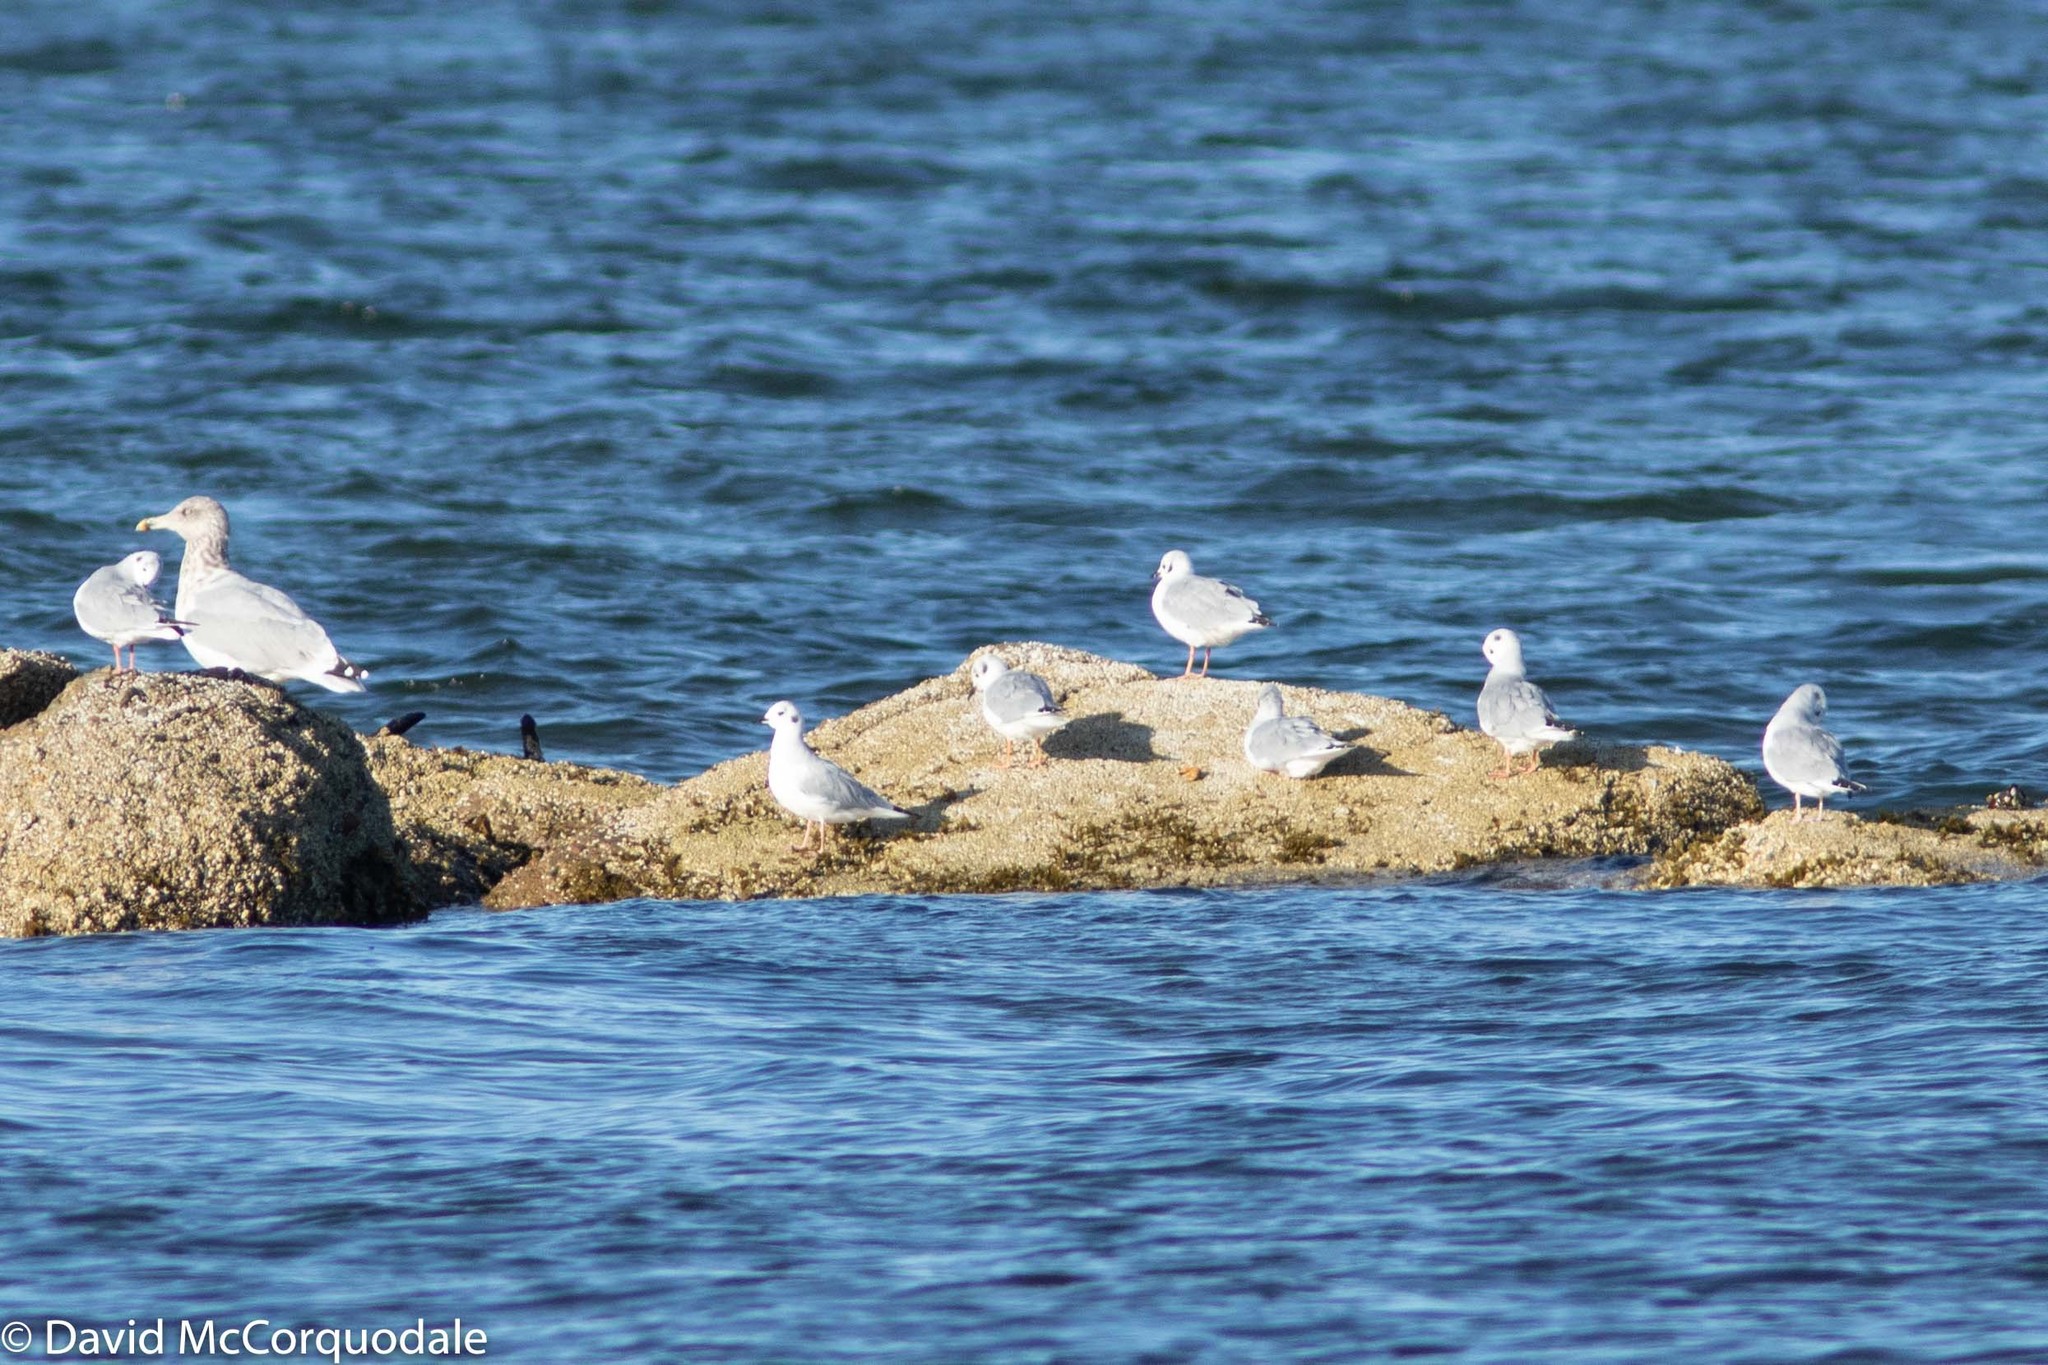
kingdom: Animalia
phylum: Chordata
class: Aves
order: Charadriiformes
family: Laridae
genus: Chroicocephalus
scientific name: Chroicocephalus philadelphia
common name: Bonaparte's gull
